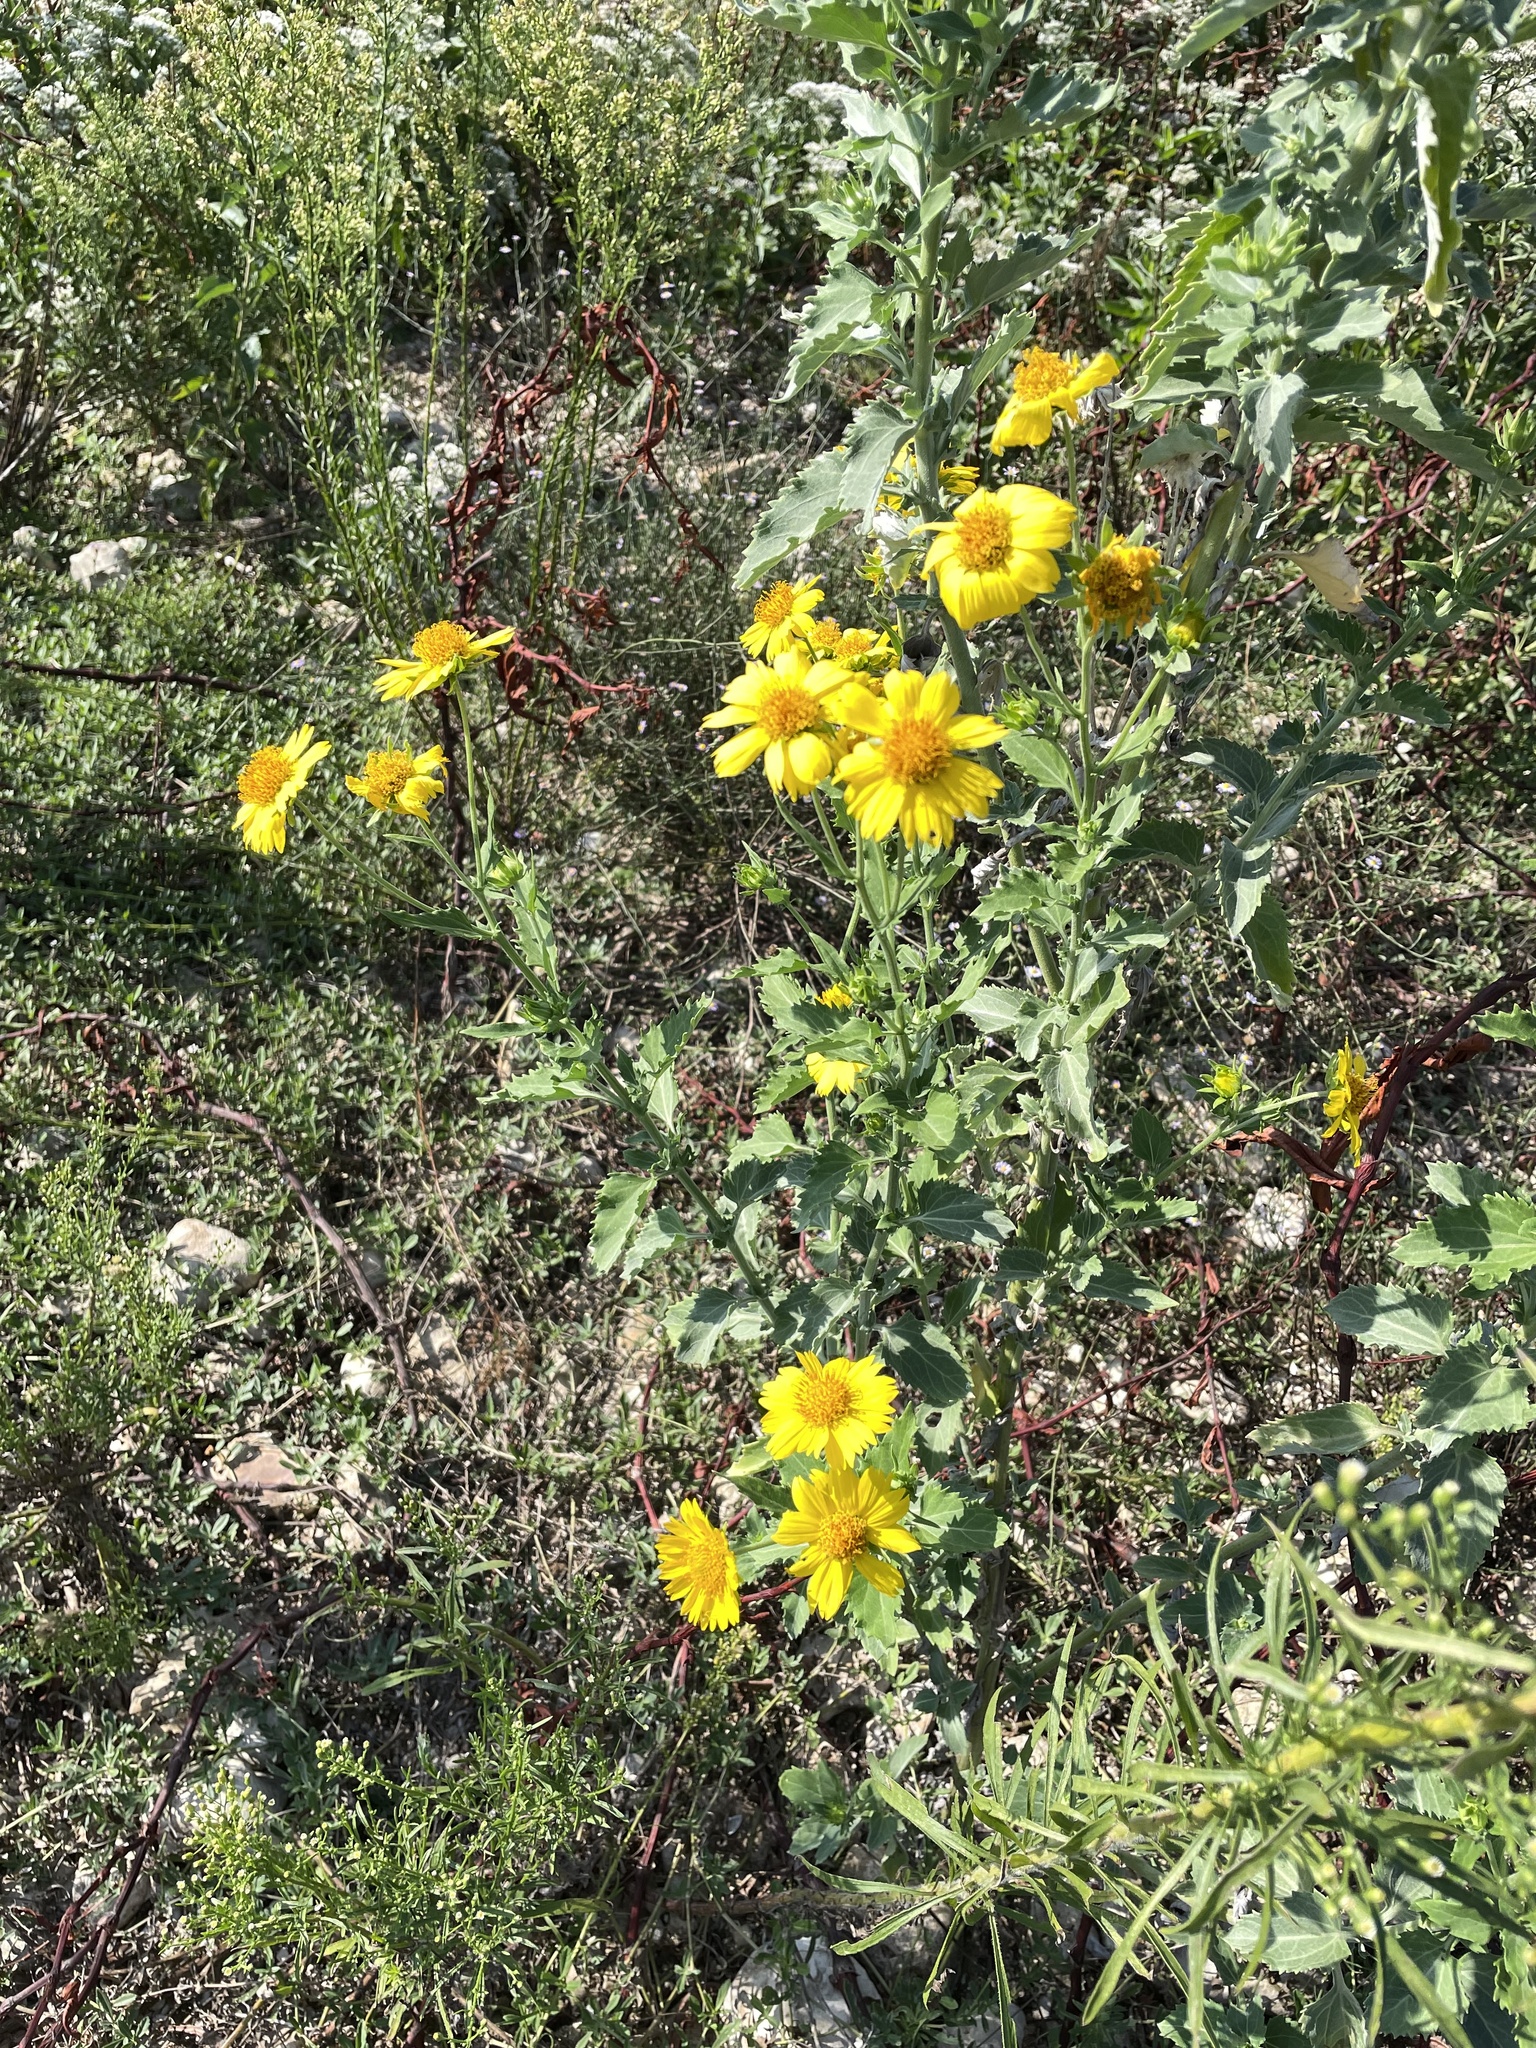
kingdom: Plantae
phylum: Tracheophyta
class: Magnoliopsida
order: Asterales
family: Asteraceae
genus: Verbesina
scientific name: Verbesina encelioides
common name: Golden crownbeard
